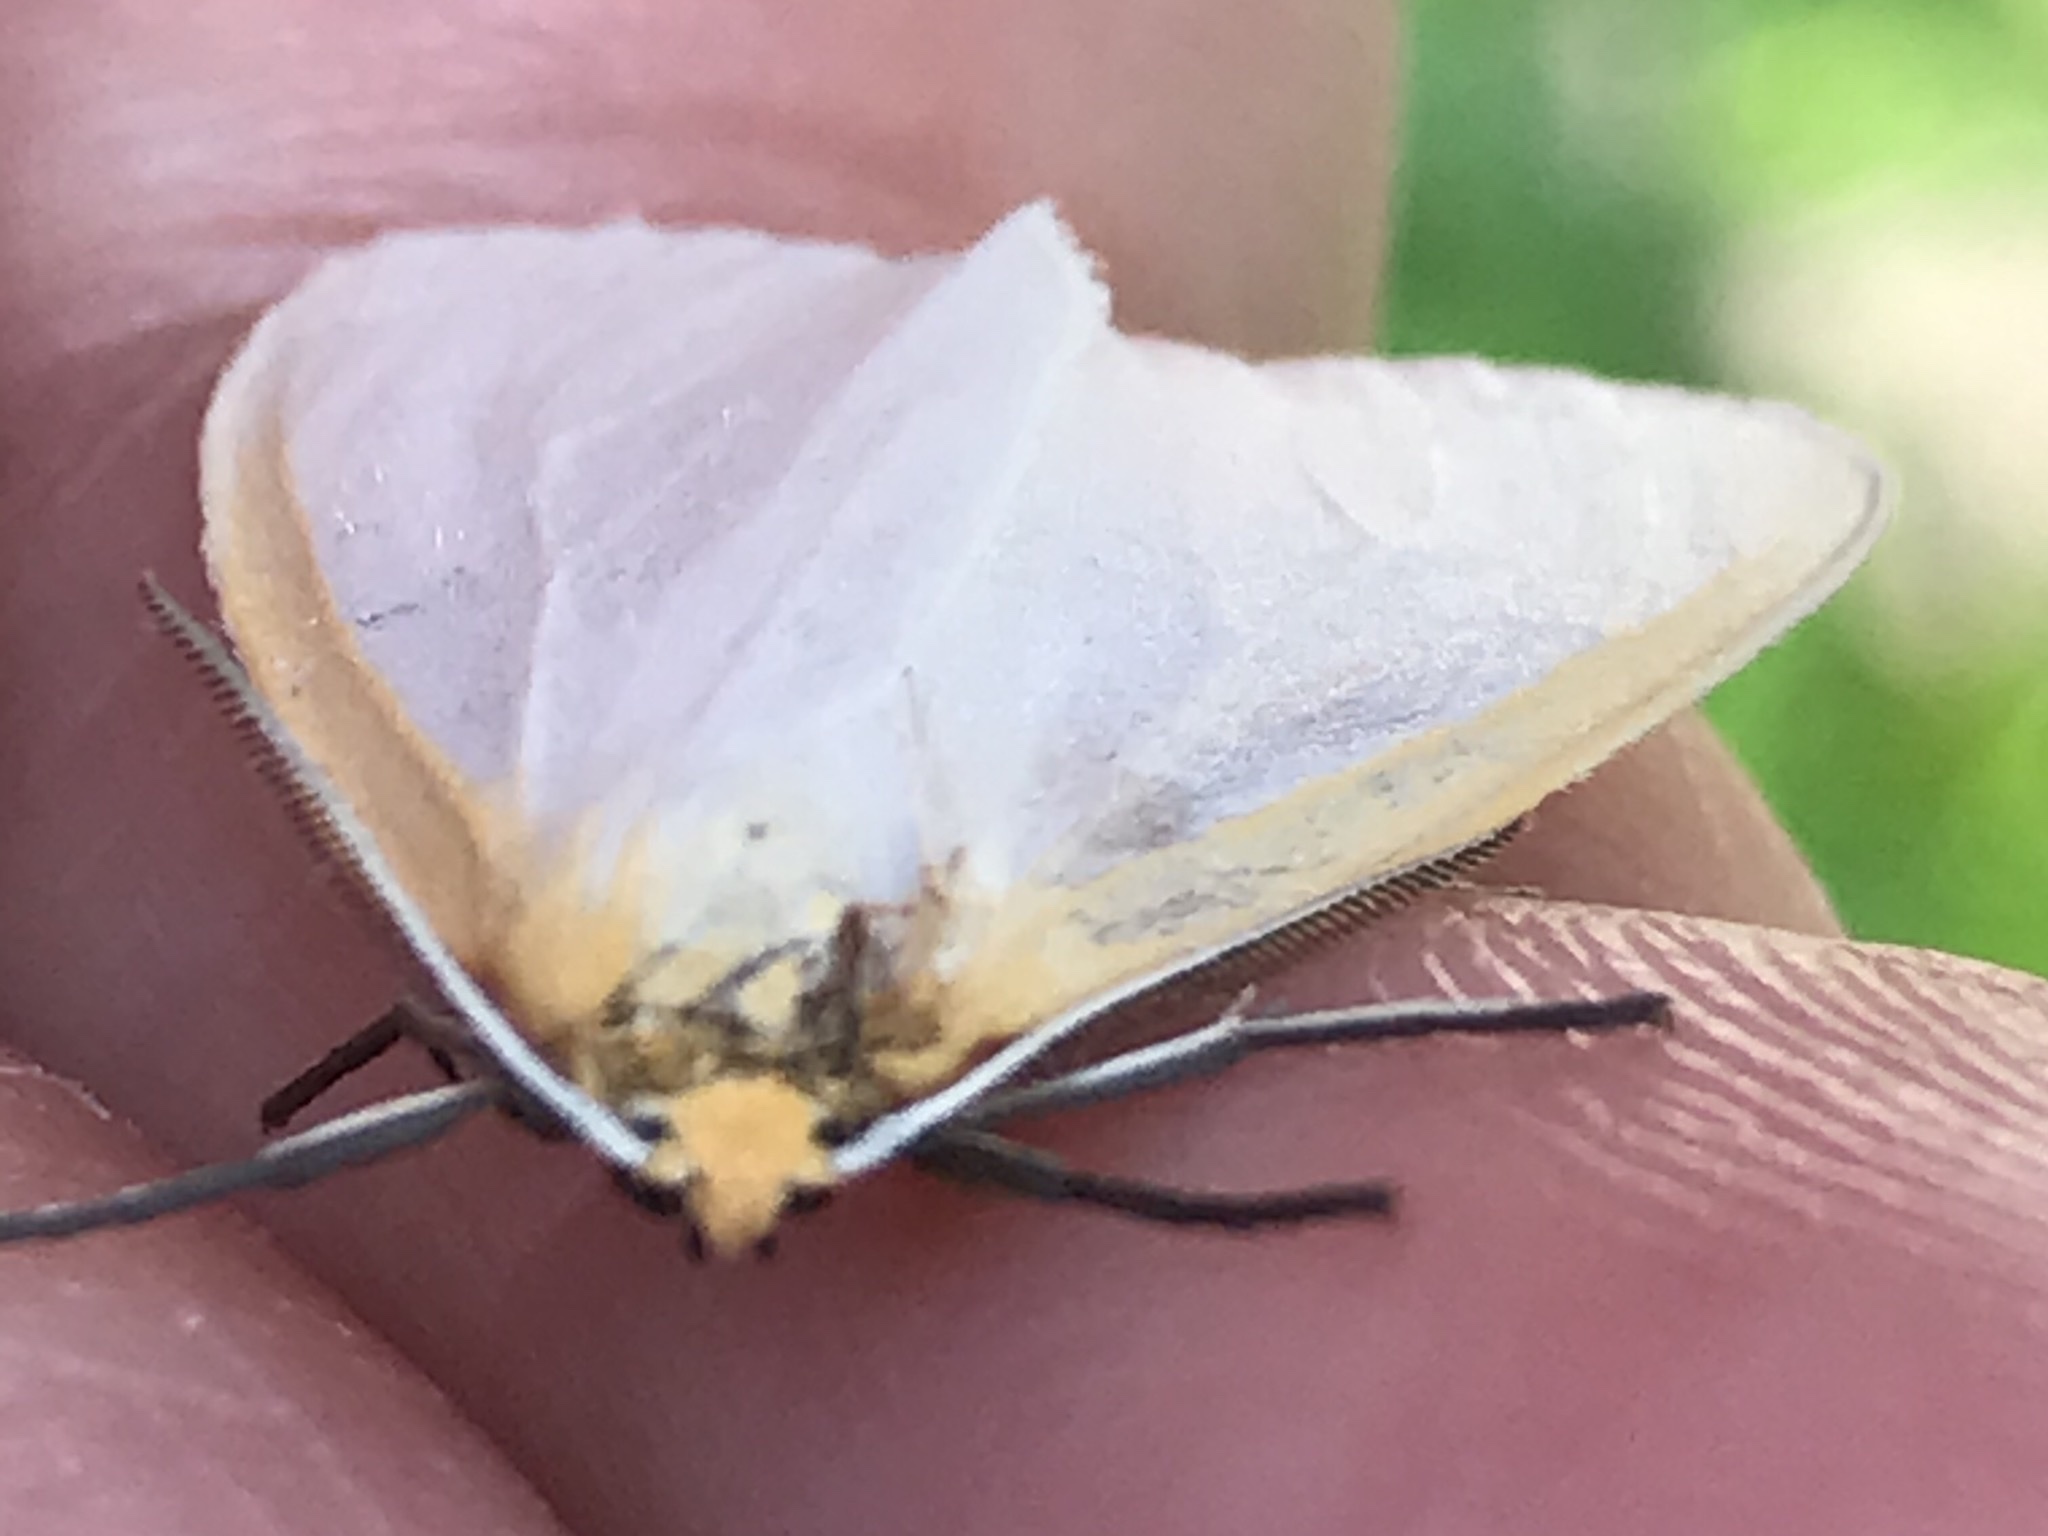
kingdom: Animalia
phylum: Arthropoda
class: Insecta
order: Lepidoptera
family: Erebidae
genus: Cycnia
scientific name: Cycnia tenera
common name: Delicate cycnia moth
